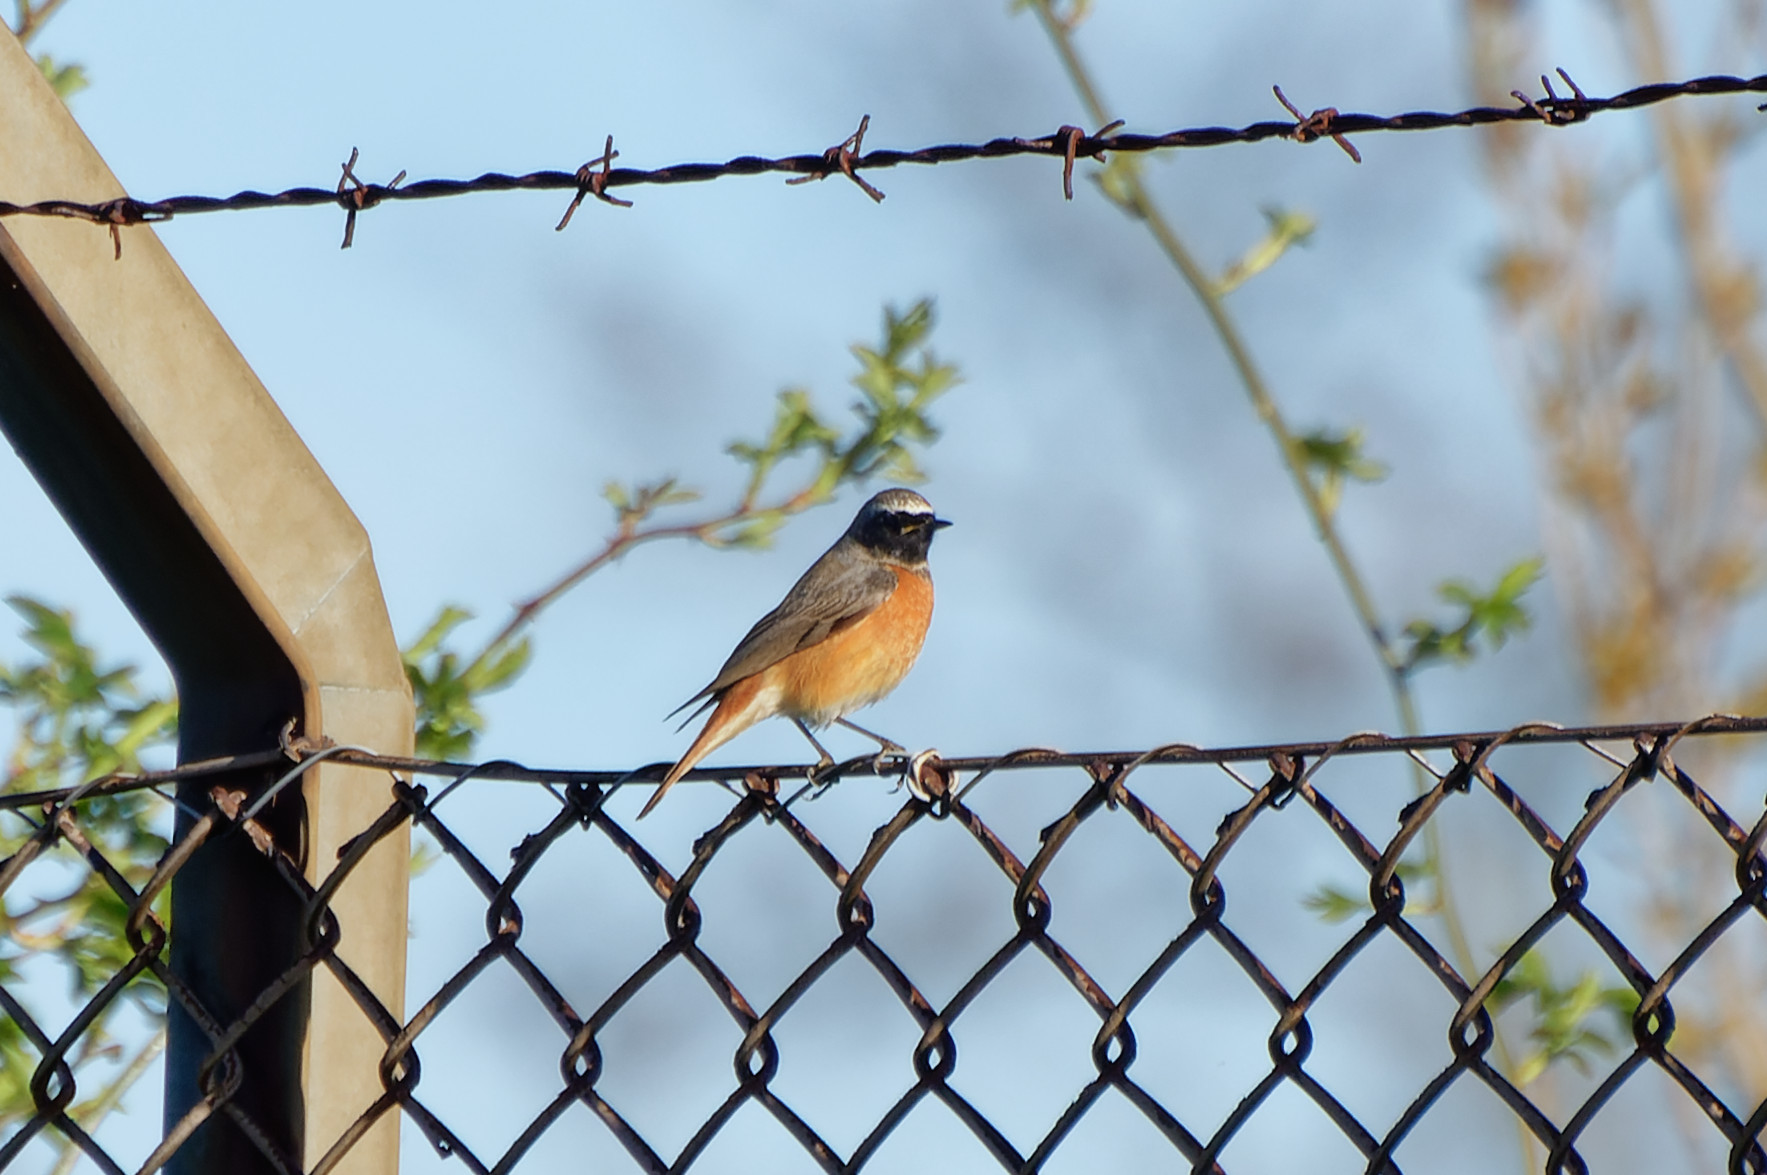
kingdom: Animalia
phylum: Chordata
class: Aves
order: Passeriformes
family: Muscicapidae
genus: Phoenicurus
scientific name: Phoenicurus phoenicurus
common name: Common redstart
